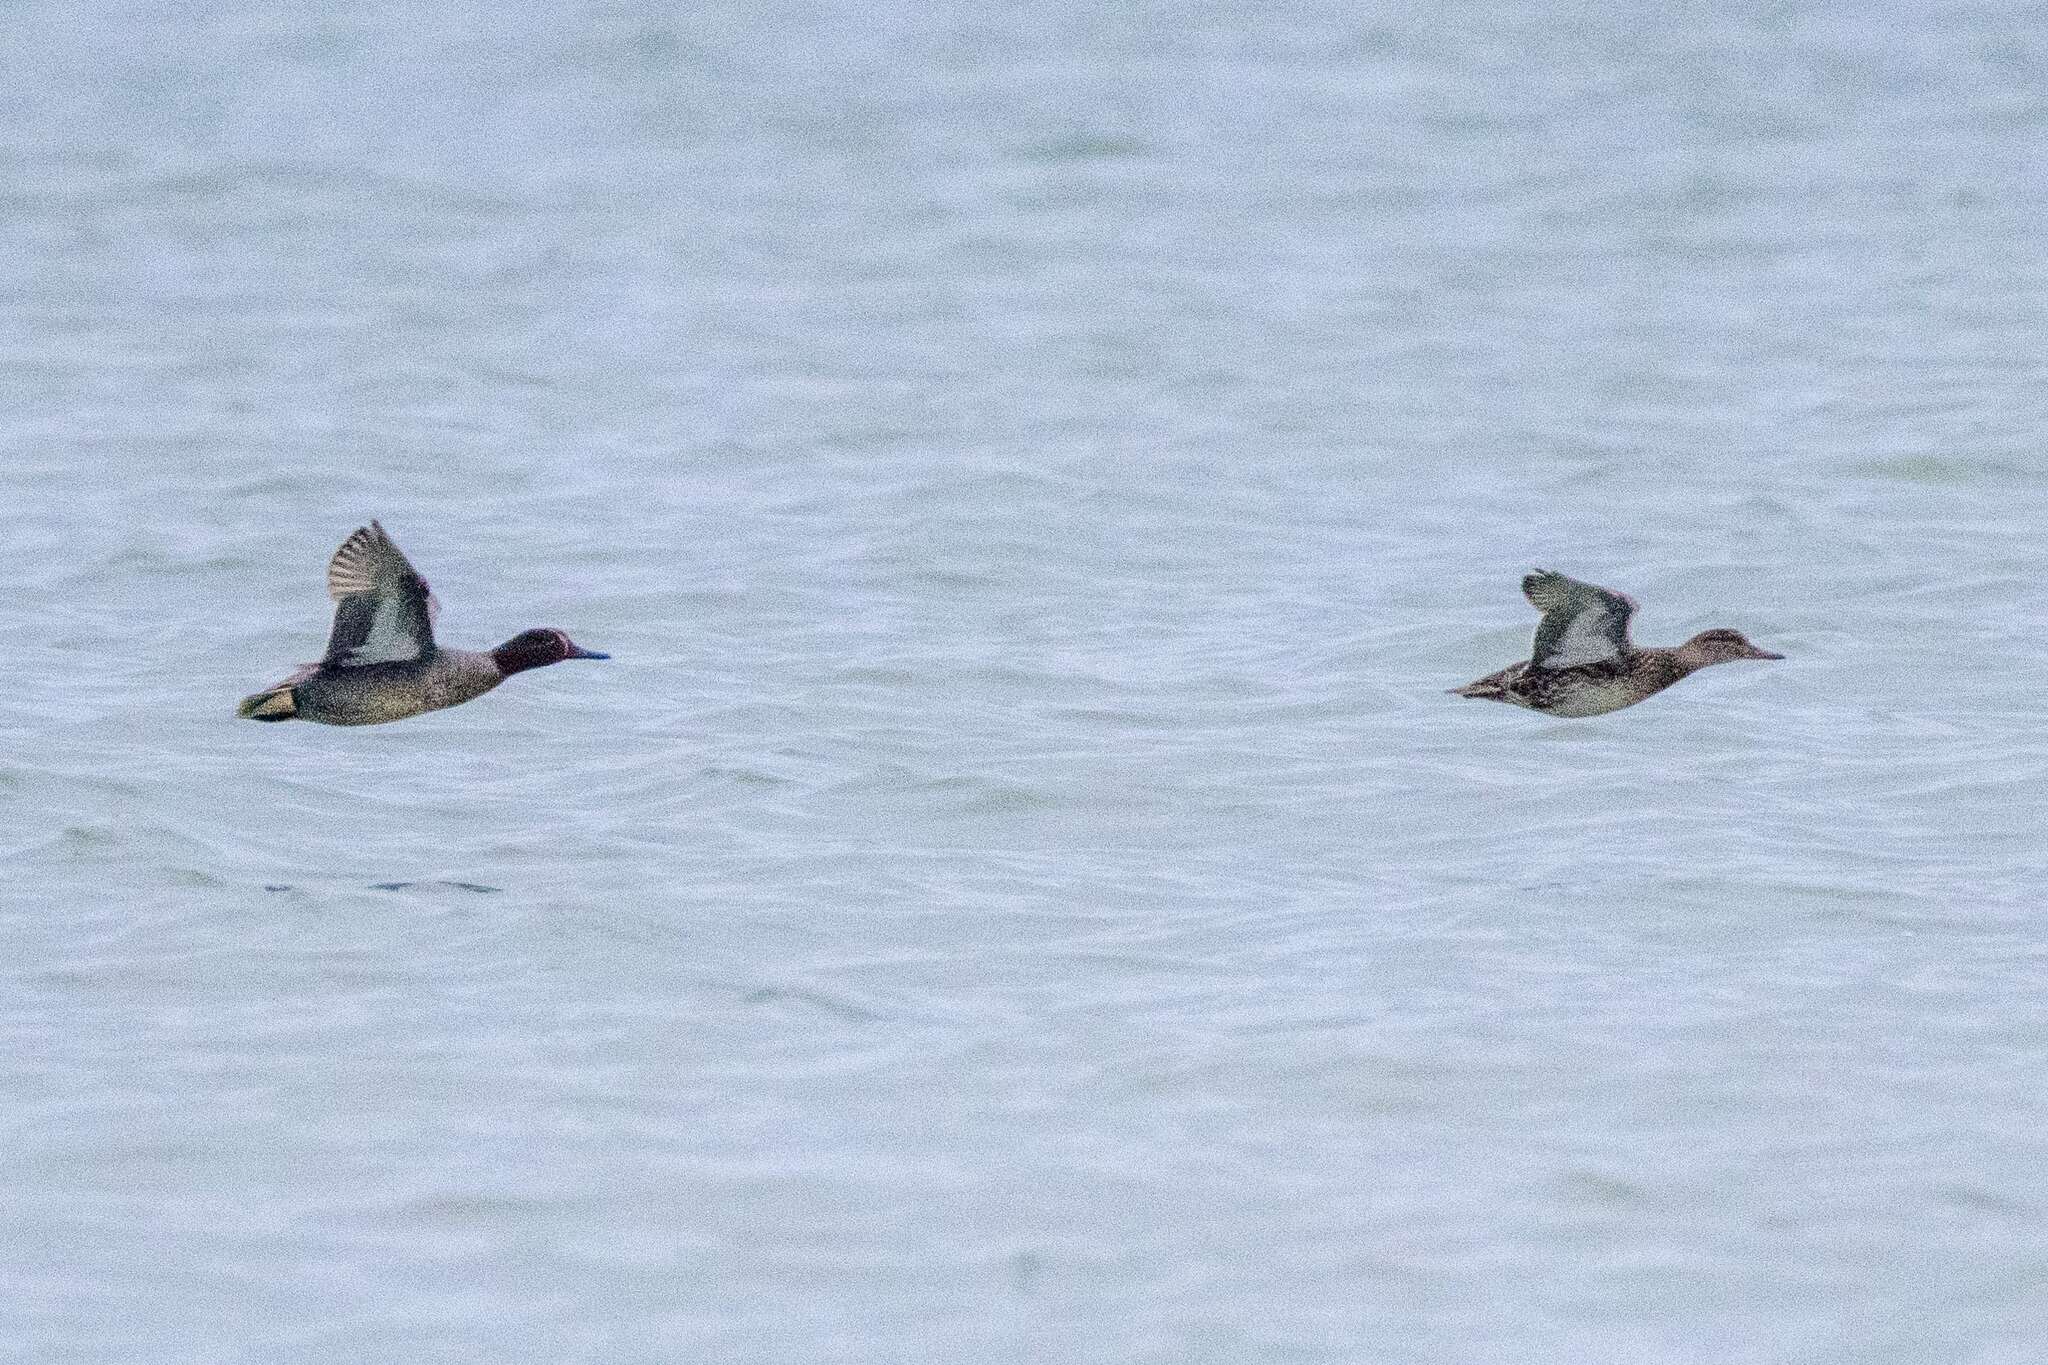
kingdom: Animalia
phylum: Chordata
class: Aves
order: Anseriformes
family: Anatidae
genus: Anas
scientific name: Anas crecca
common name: Eurasian teal
